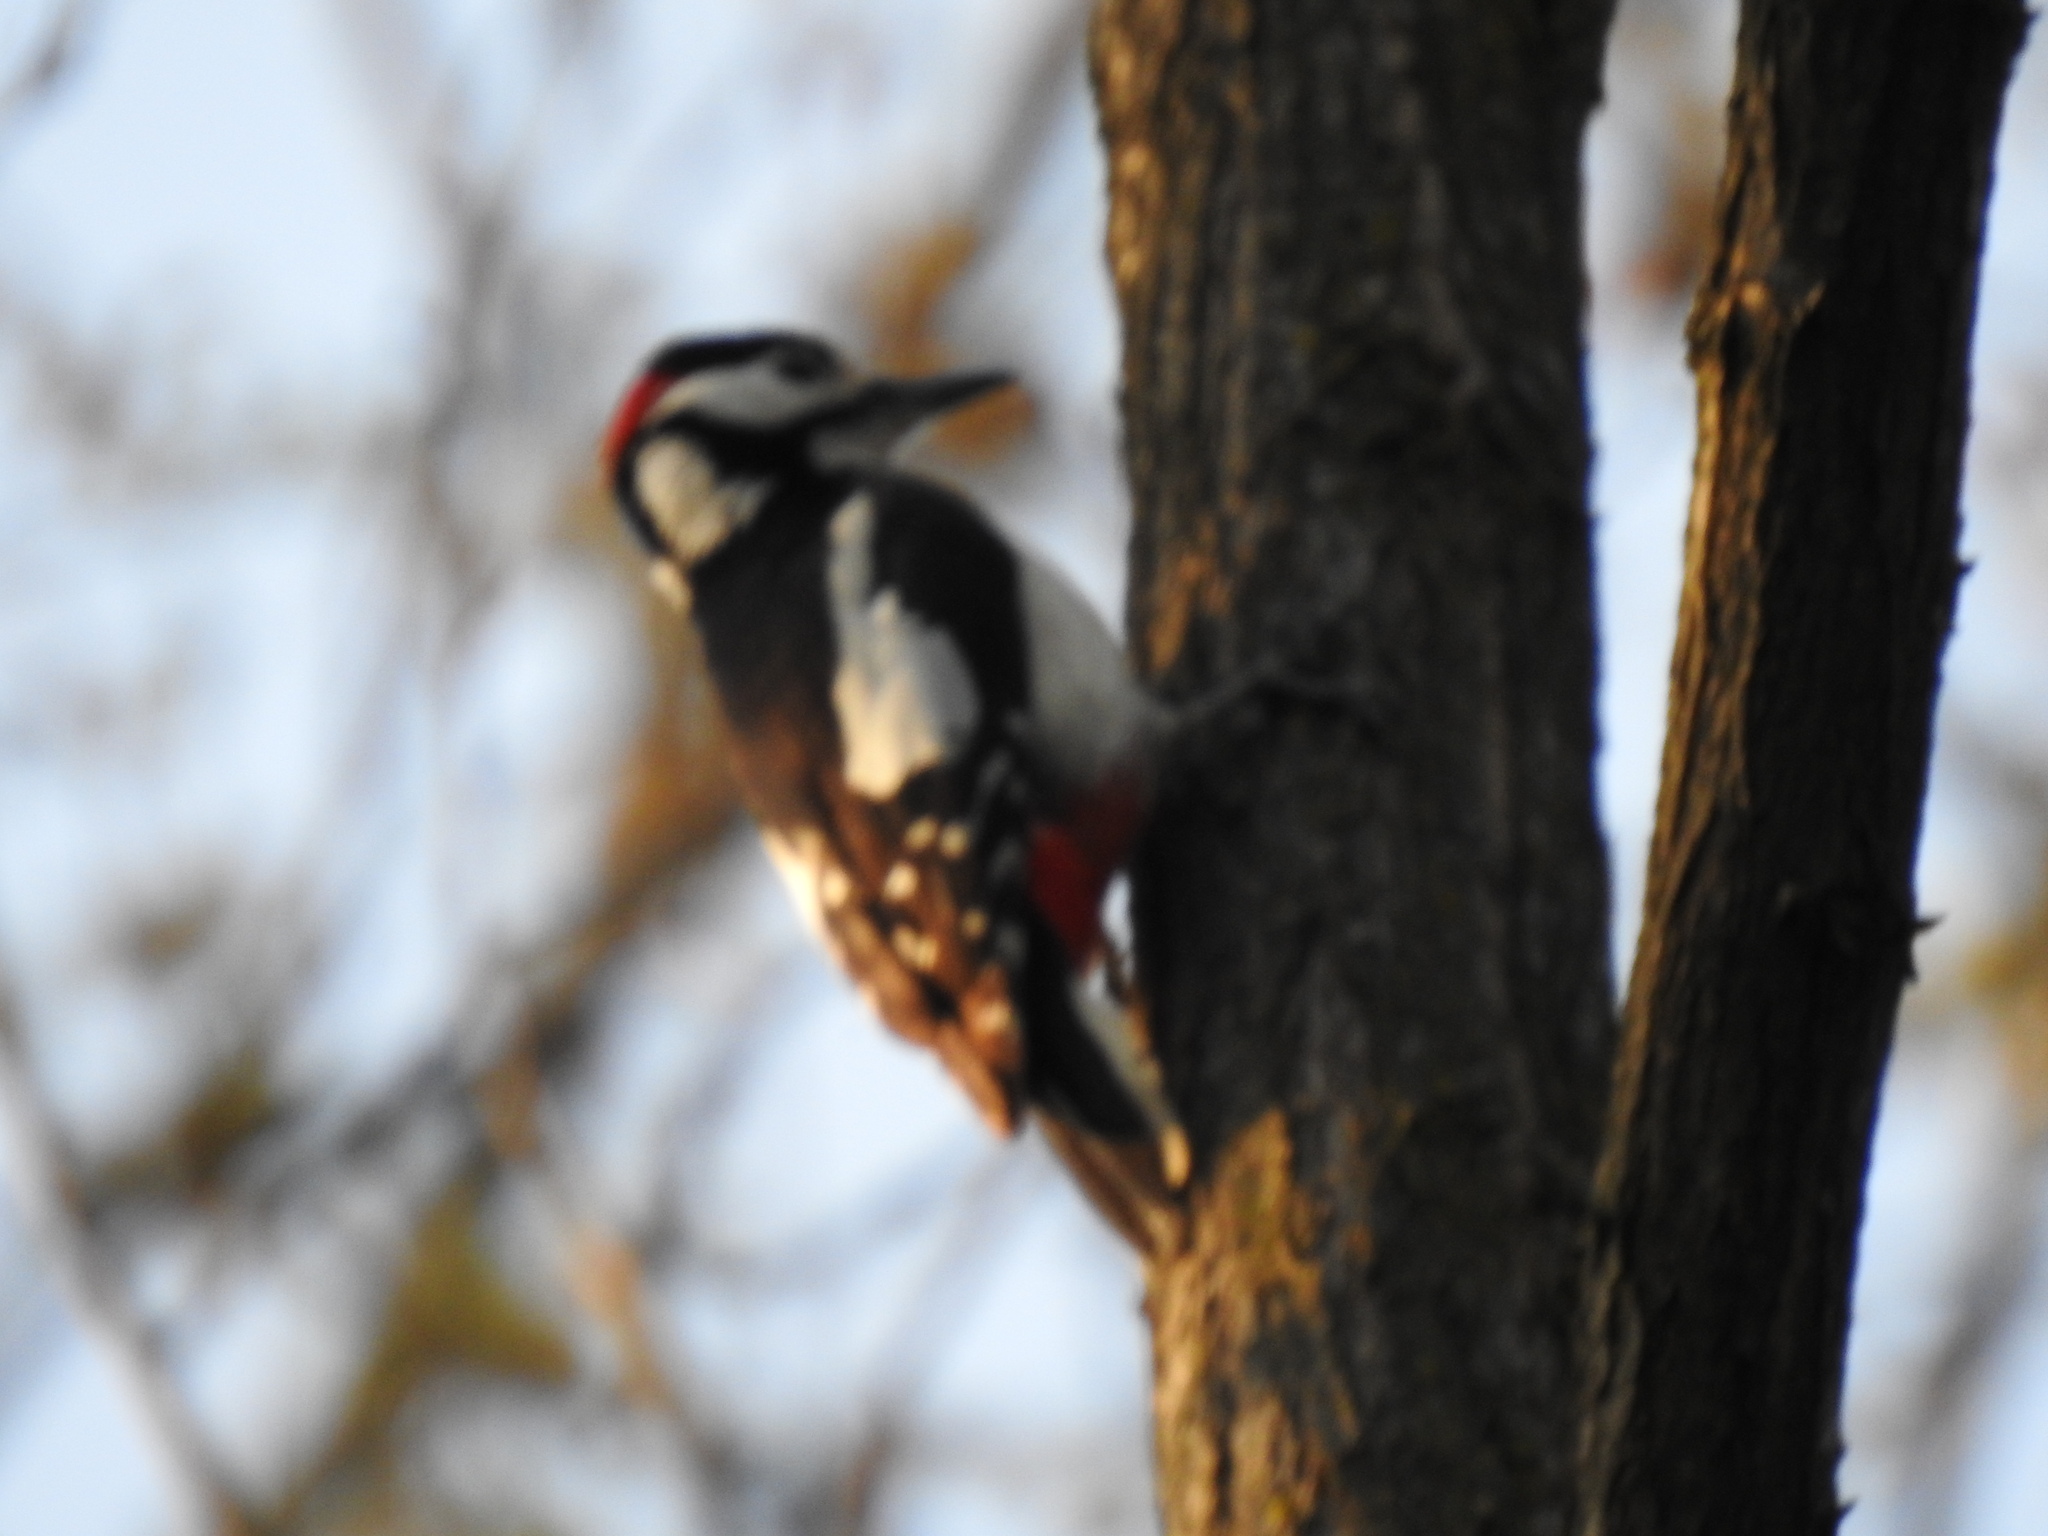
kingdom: Animalia
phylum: Chordata
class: Aves
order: Piciformes
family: Picidae
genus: Dendrocopos
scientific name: Dendrocopos major
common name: Great spotted woodpecker
